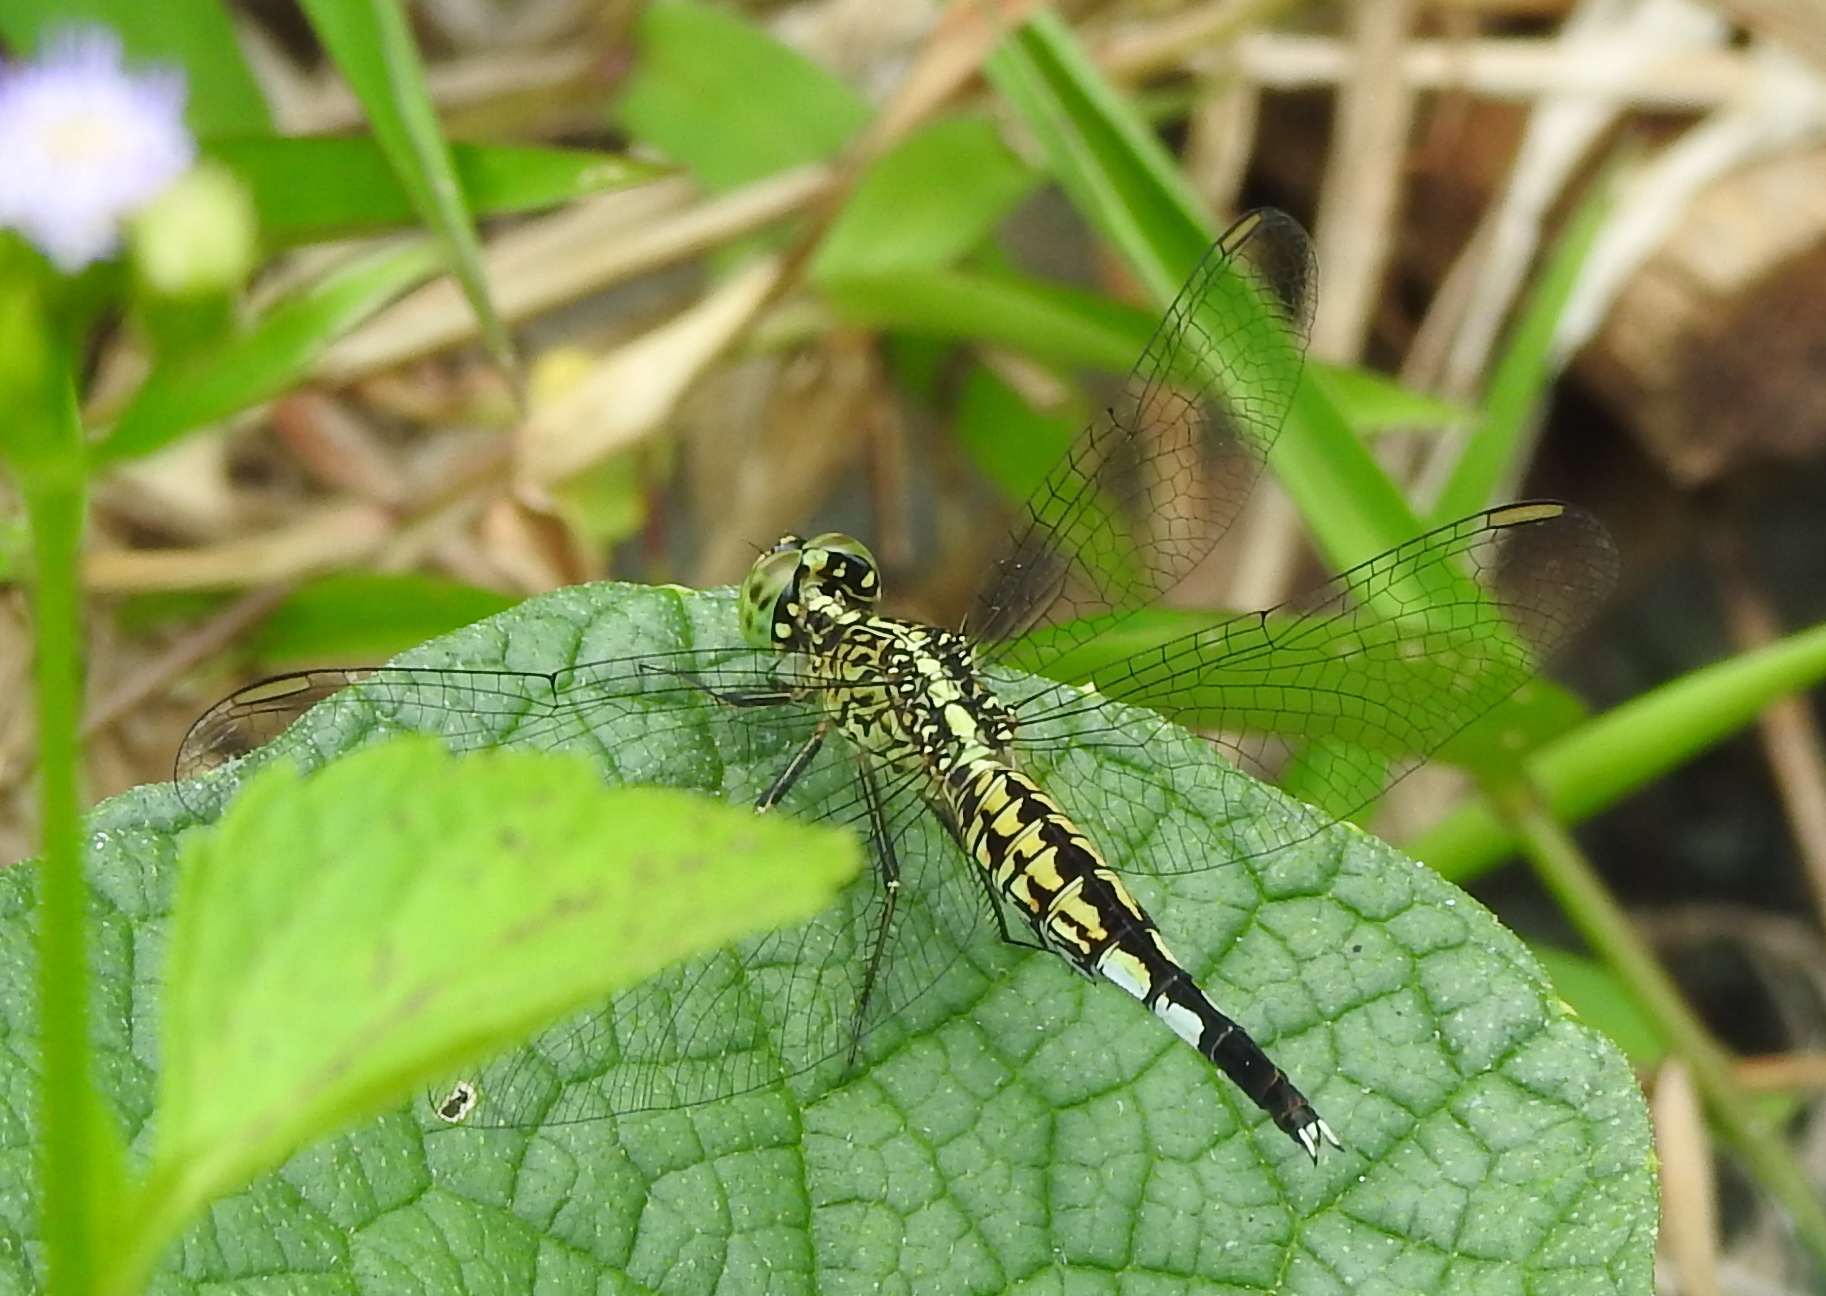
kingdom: Animalia
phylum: Arthropoda
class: Insecta
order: Odonata
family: Libellulidae
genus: Acisoma
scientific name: Acisoma panorpoides
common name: Asian pintail
